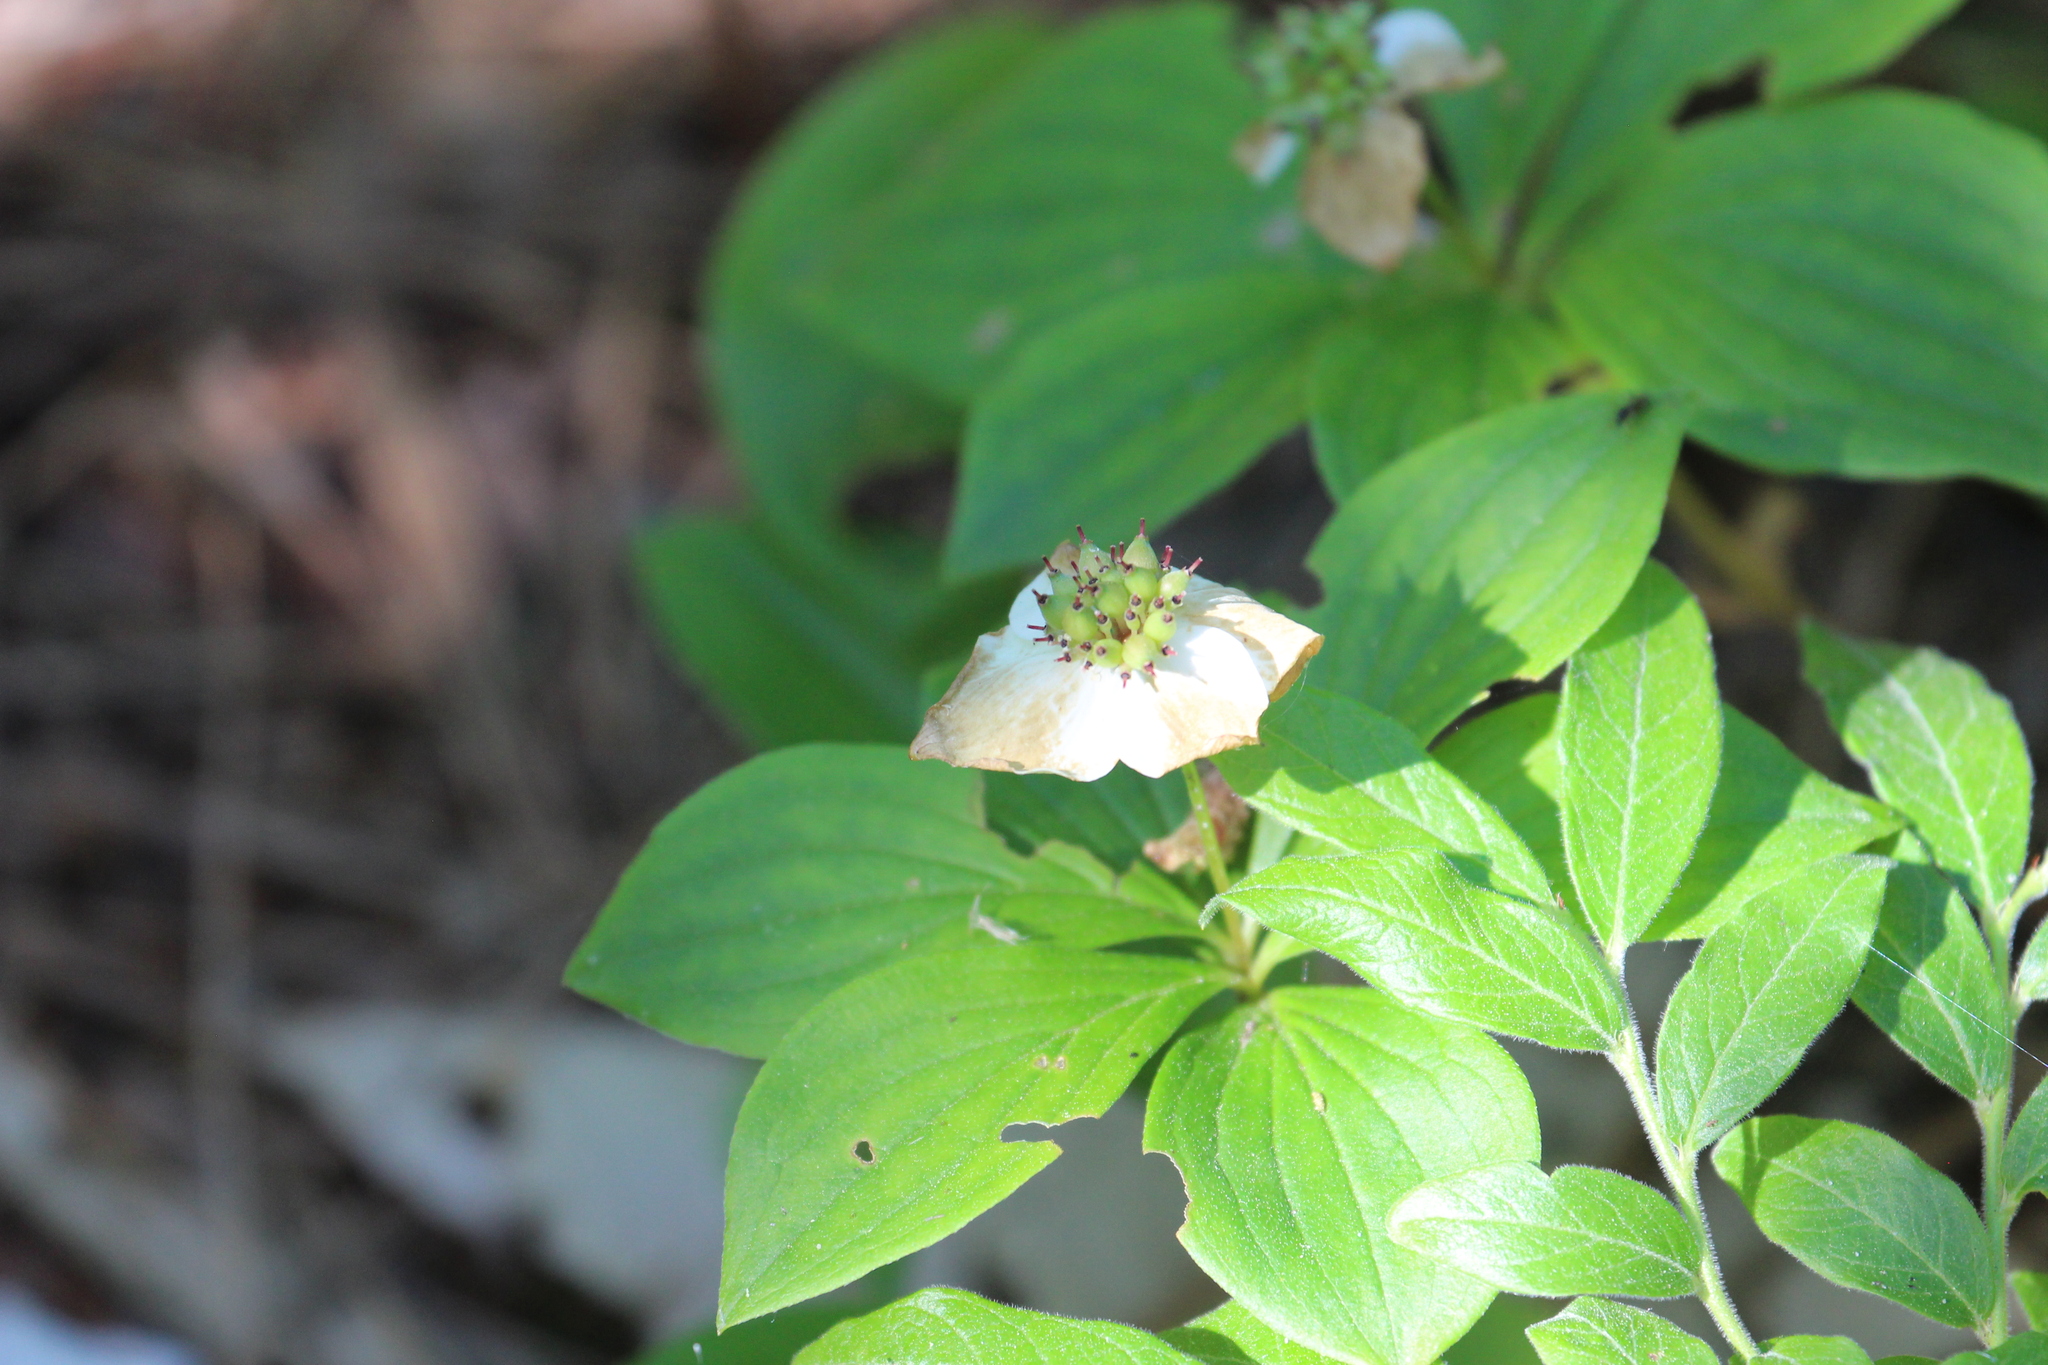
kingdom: Plantae
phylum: Tracheophyta
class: Magnoliopsida
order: Cornales
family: Cornaceae
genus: Cornus
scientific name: Cornus canadensis
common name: Creeping dogwood
